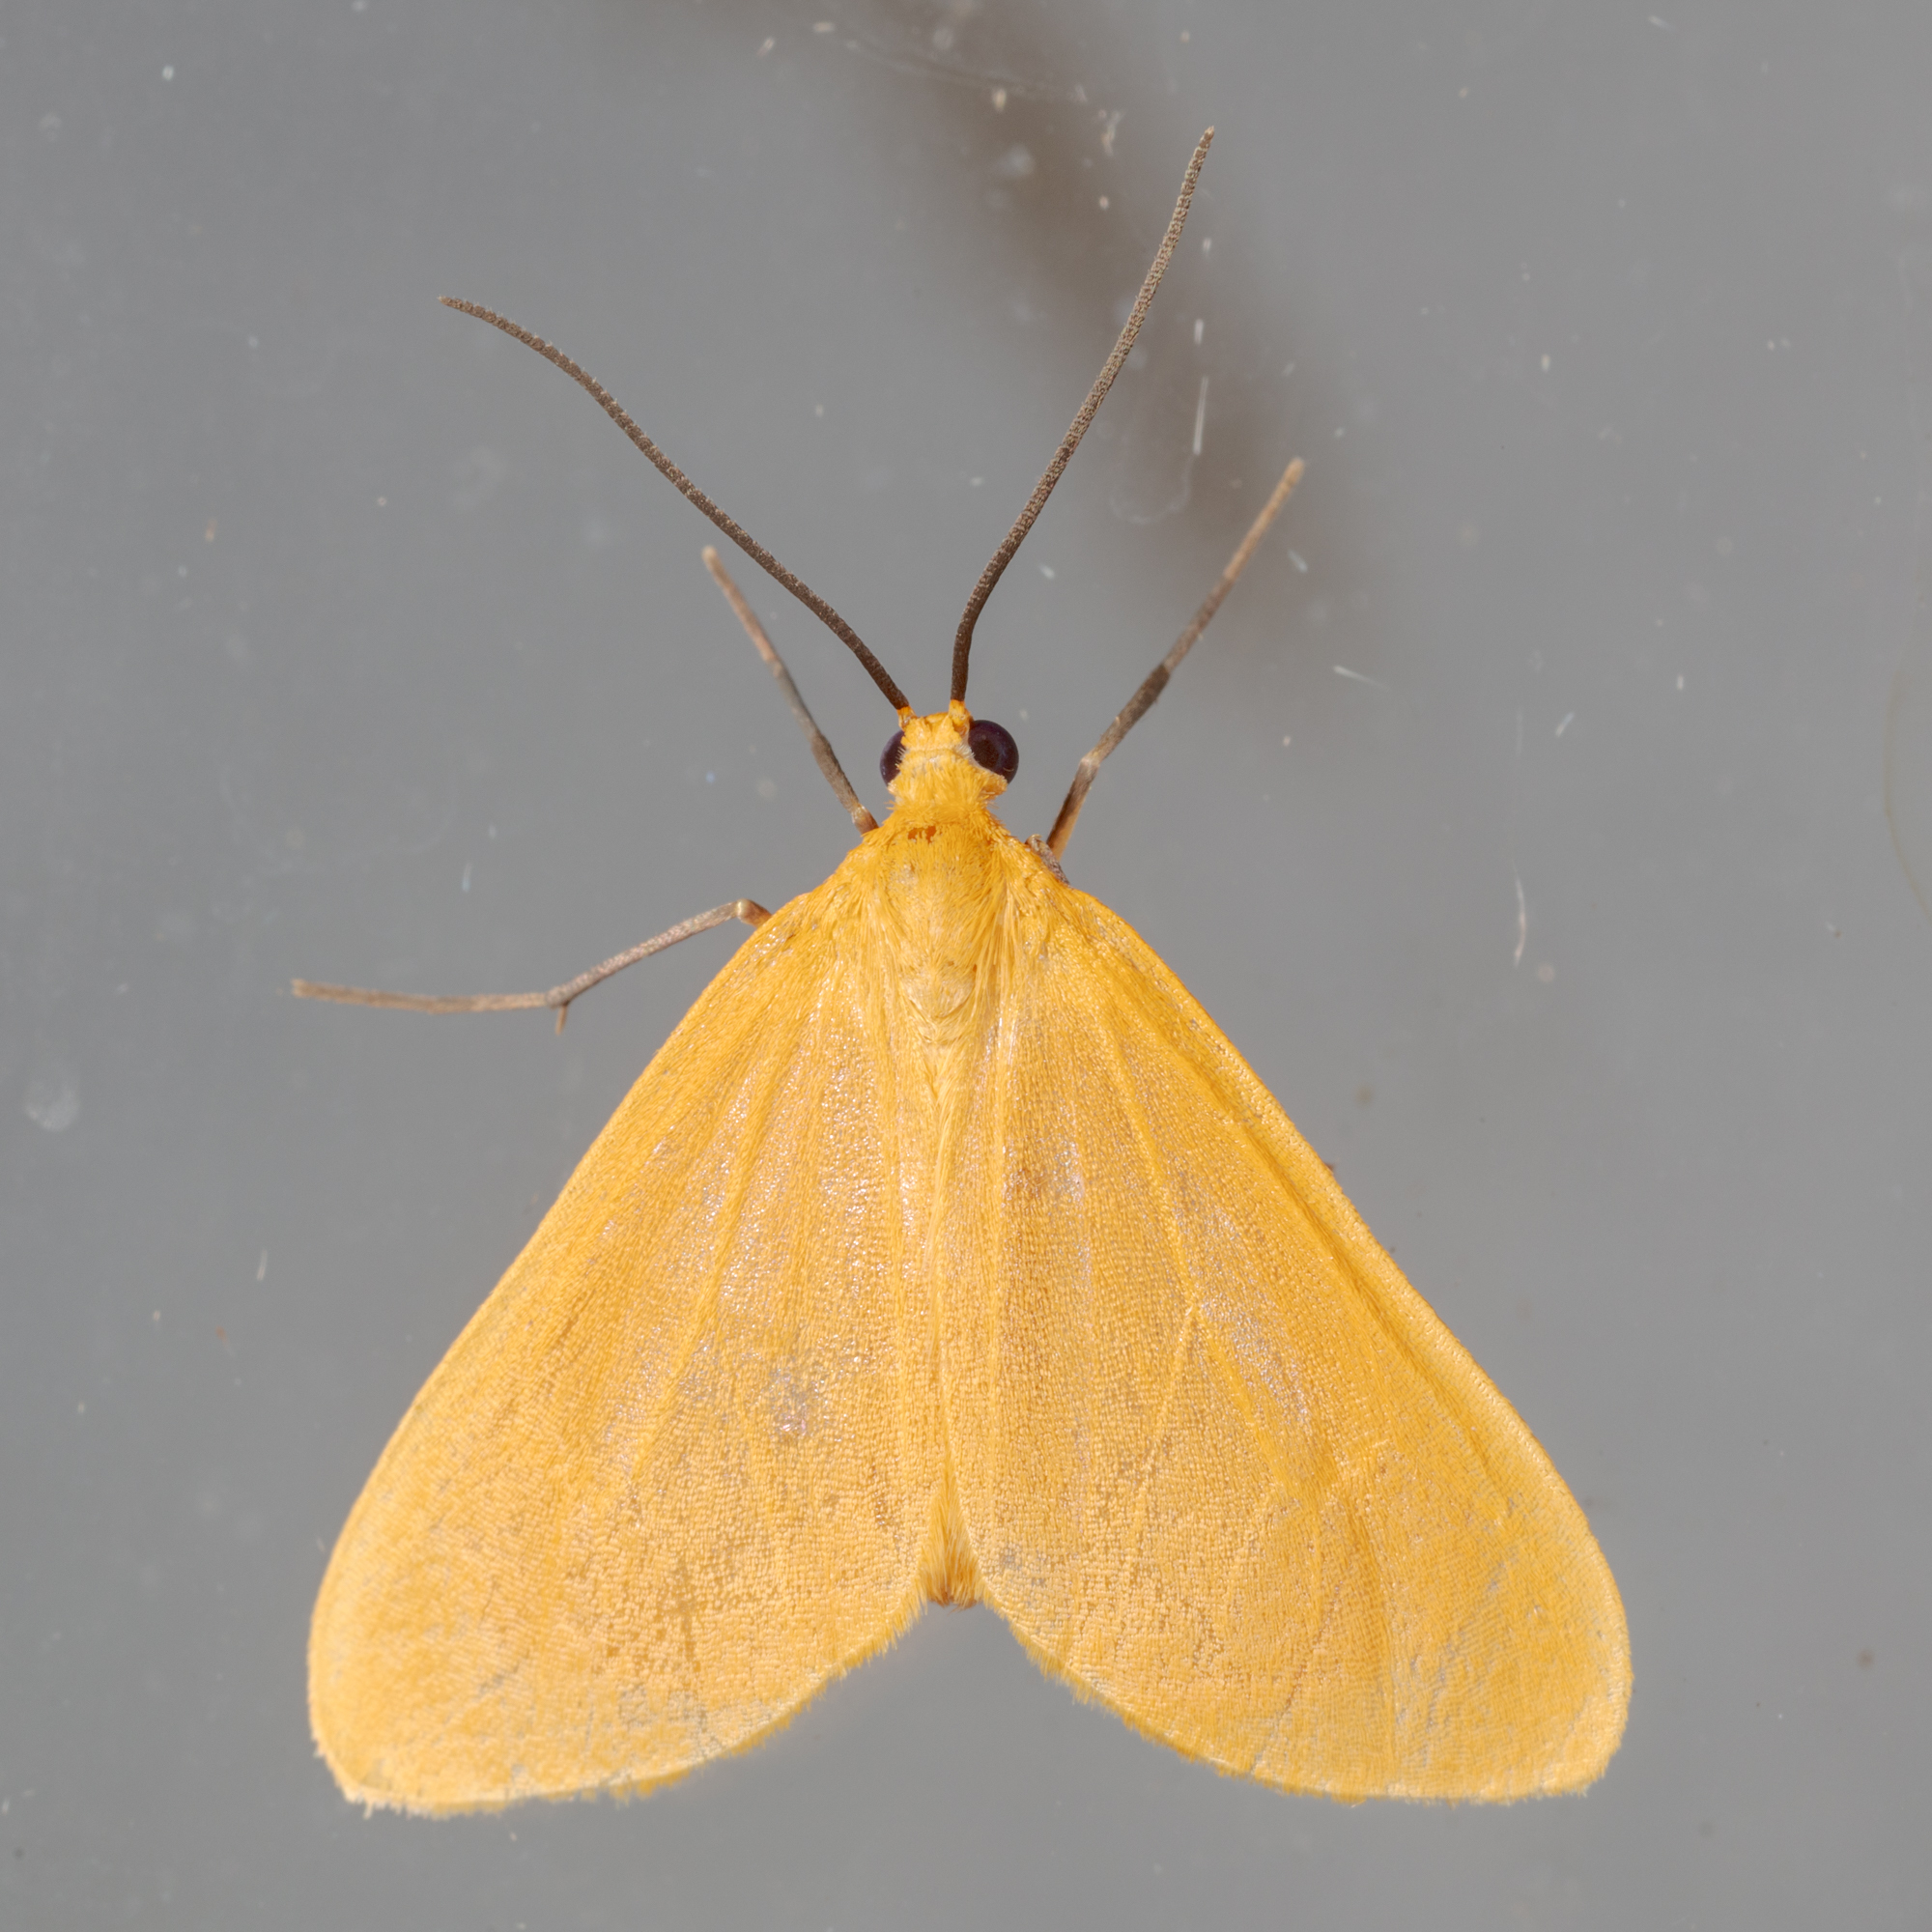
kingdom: Animalia
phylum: Arthropoda
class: Insecta
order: Lepidoptera
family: Geometridae
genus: Eubaphe
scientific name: Eubaphe unicolor
